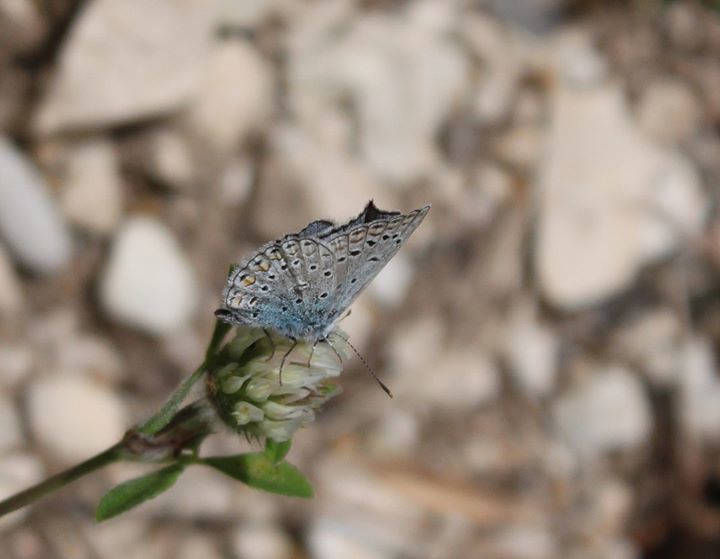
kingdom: Animalia
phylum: Arthropoda
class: Insecta
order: Lepidoptera
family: Lycaenidae
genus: Polyommatus
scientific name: Polyommatus icarus
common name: Common blue
